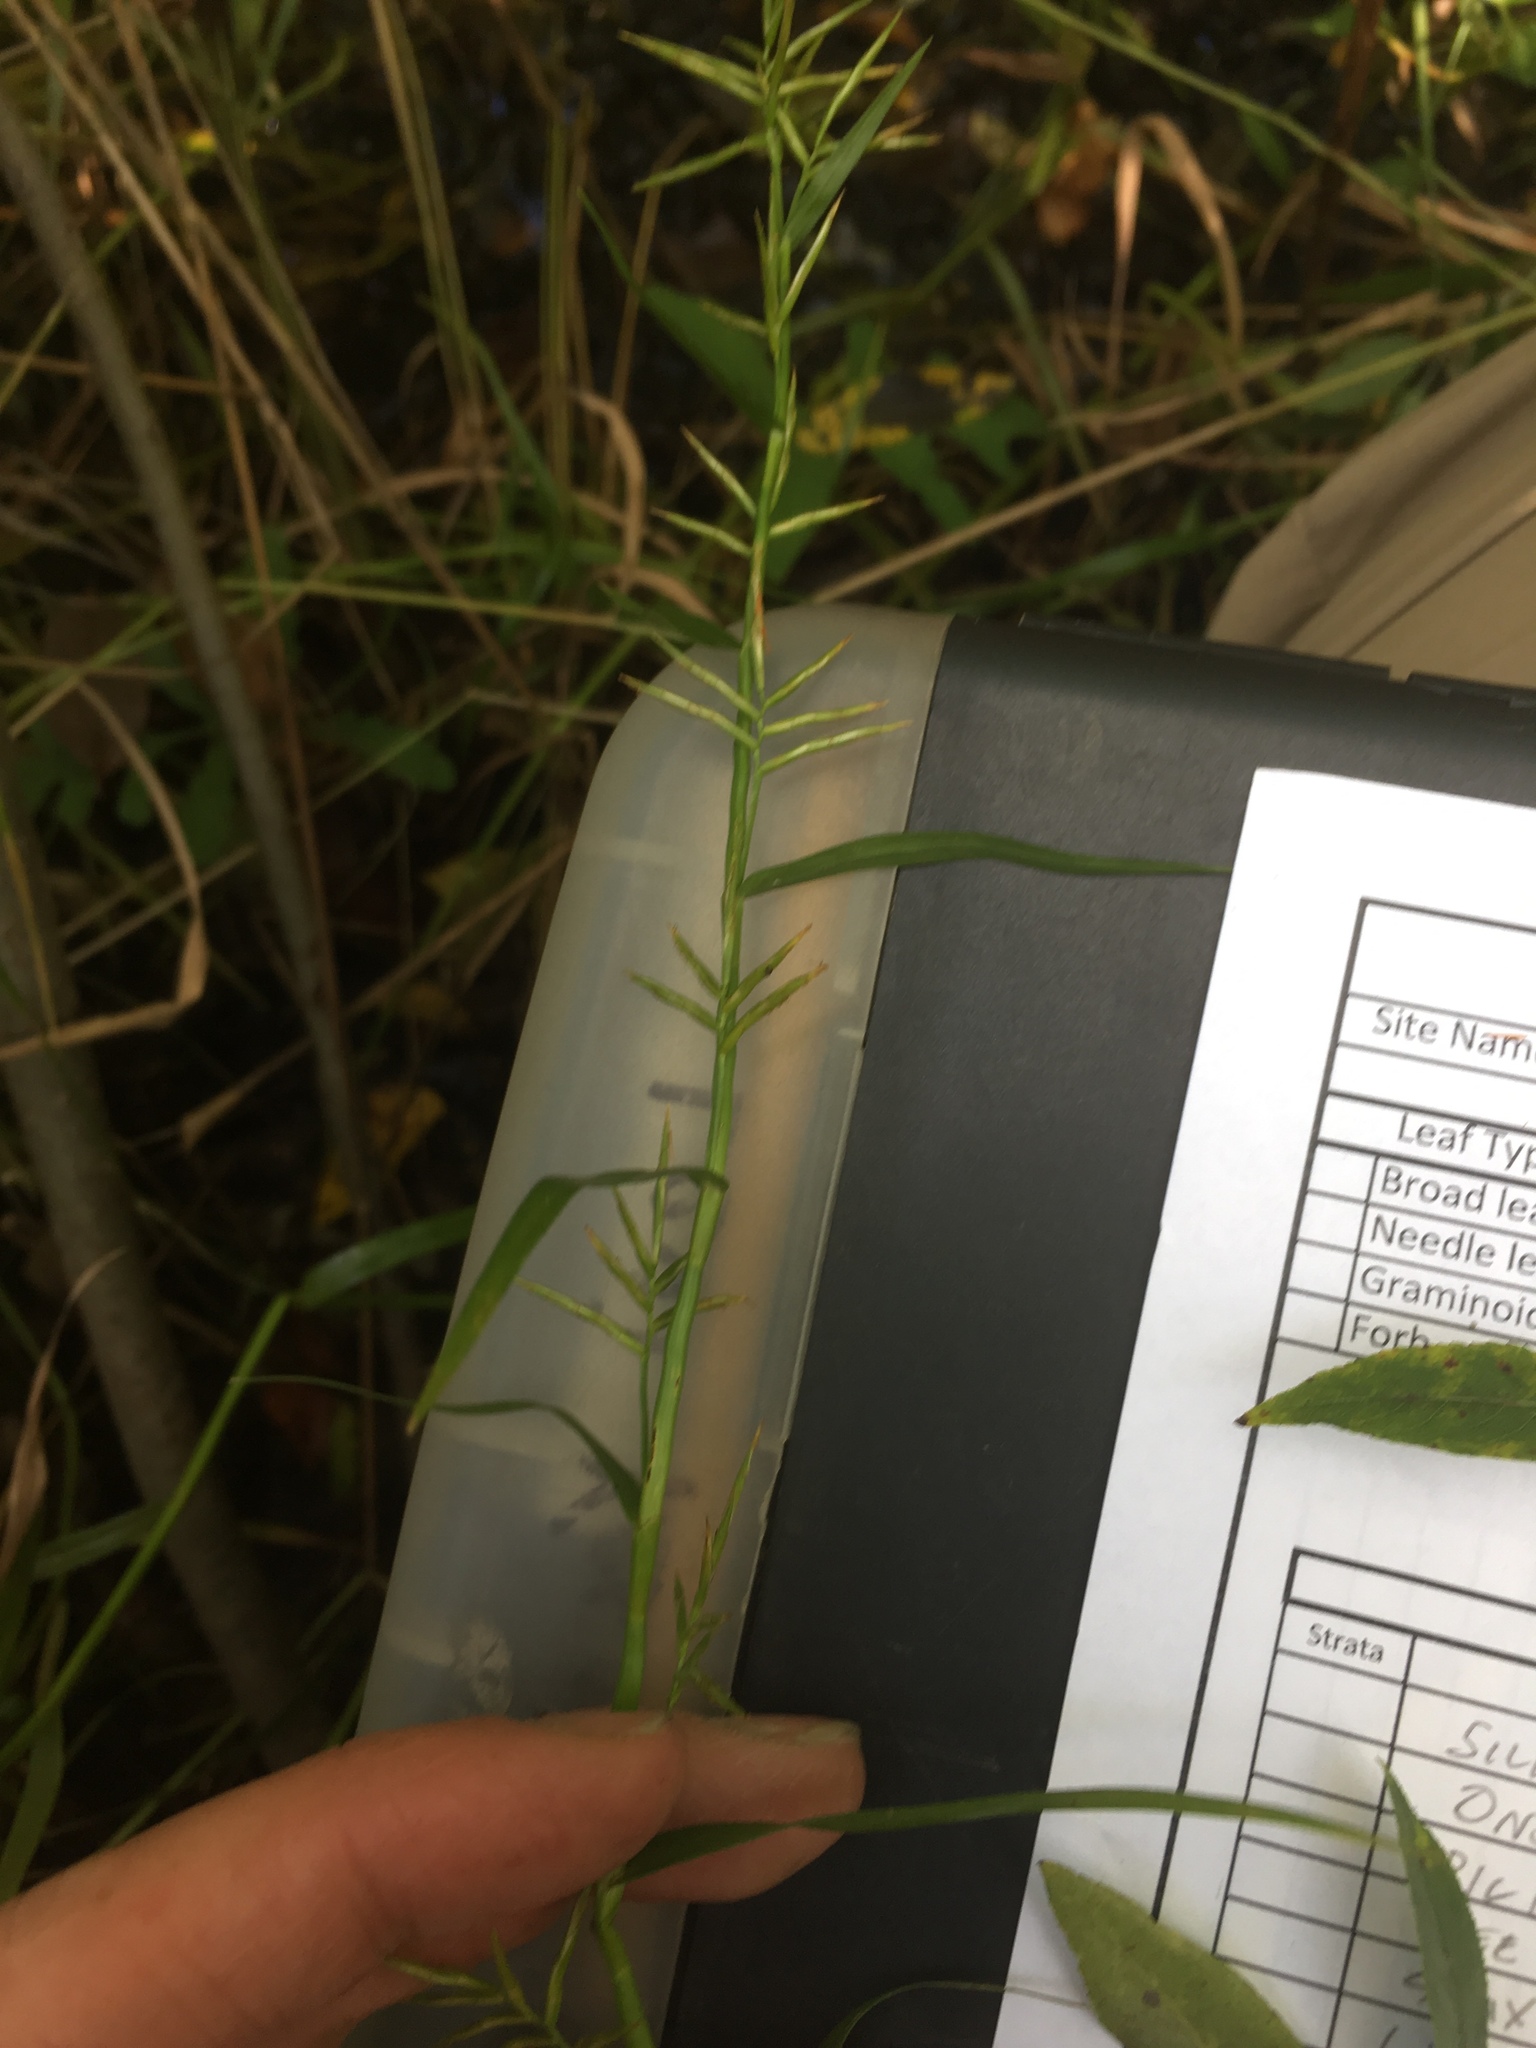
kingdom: Plantae
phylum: Tracheophyta
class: Liliopsida
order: Poales
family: Cyperaceae
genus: Dulichium
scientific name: Dulichium arundinaceum
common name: Three-way sedge
